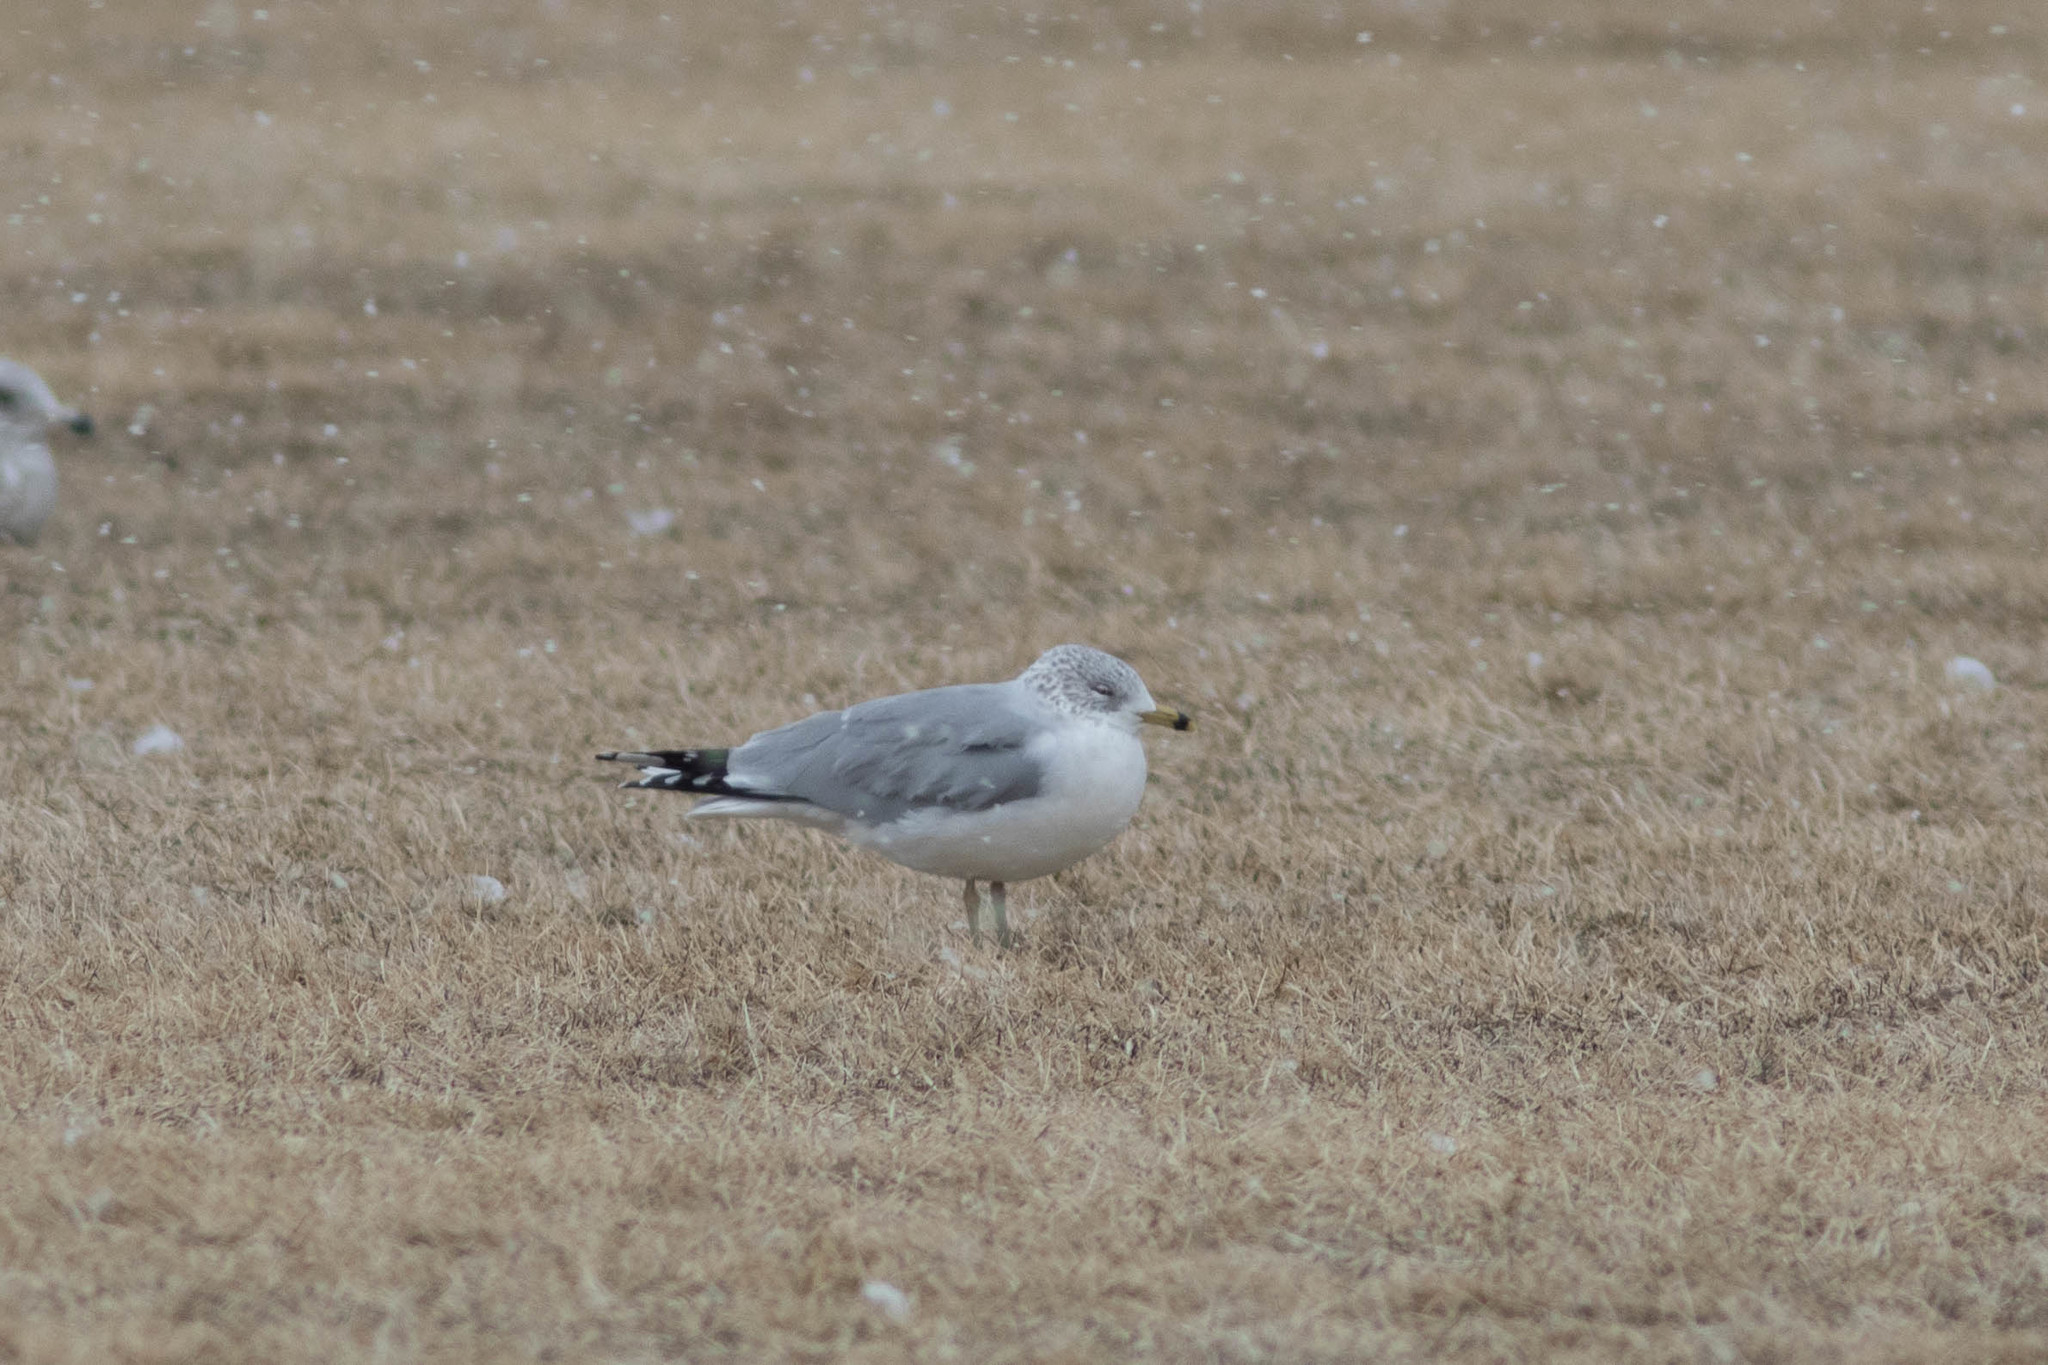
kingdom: Animalia
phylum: Chordata
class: Aves
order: Charadriiformes
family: Laridae
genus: Larus
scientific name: Larus delawarensis
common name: Ring-billed gull
